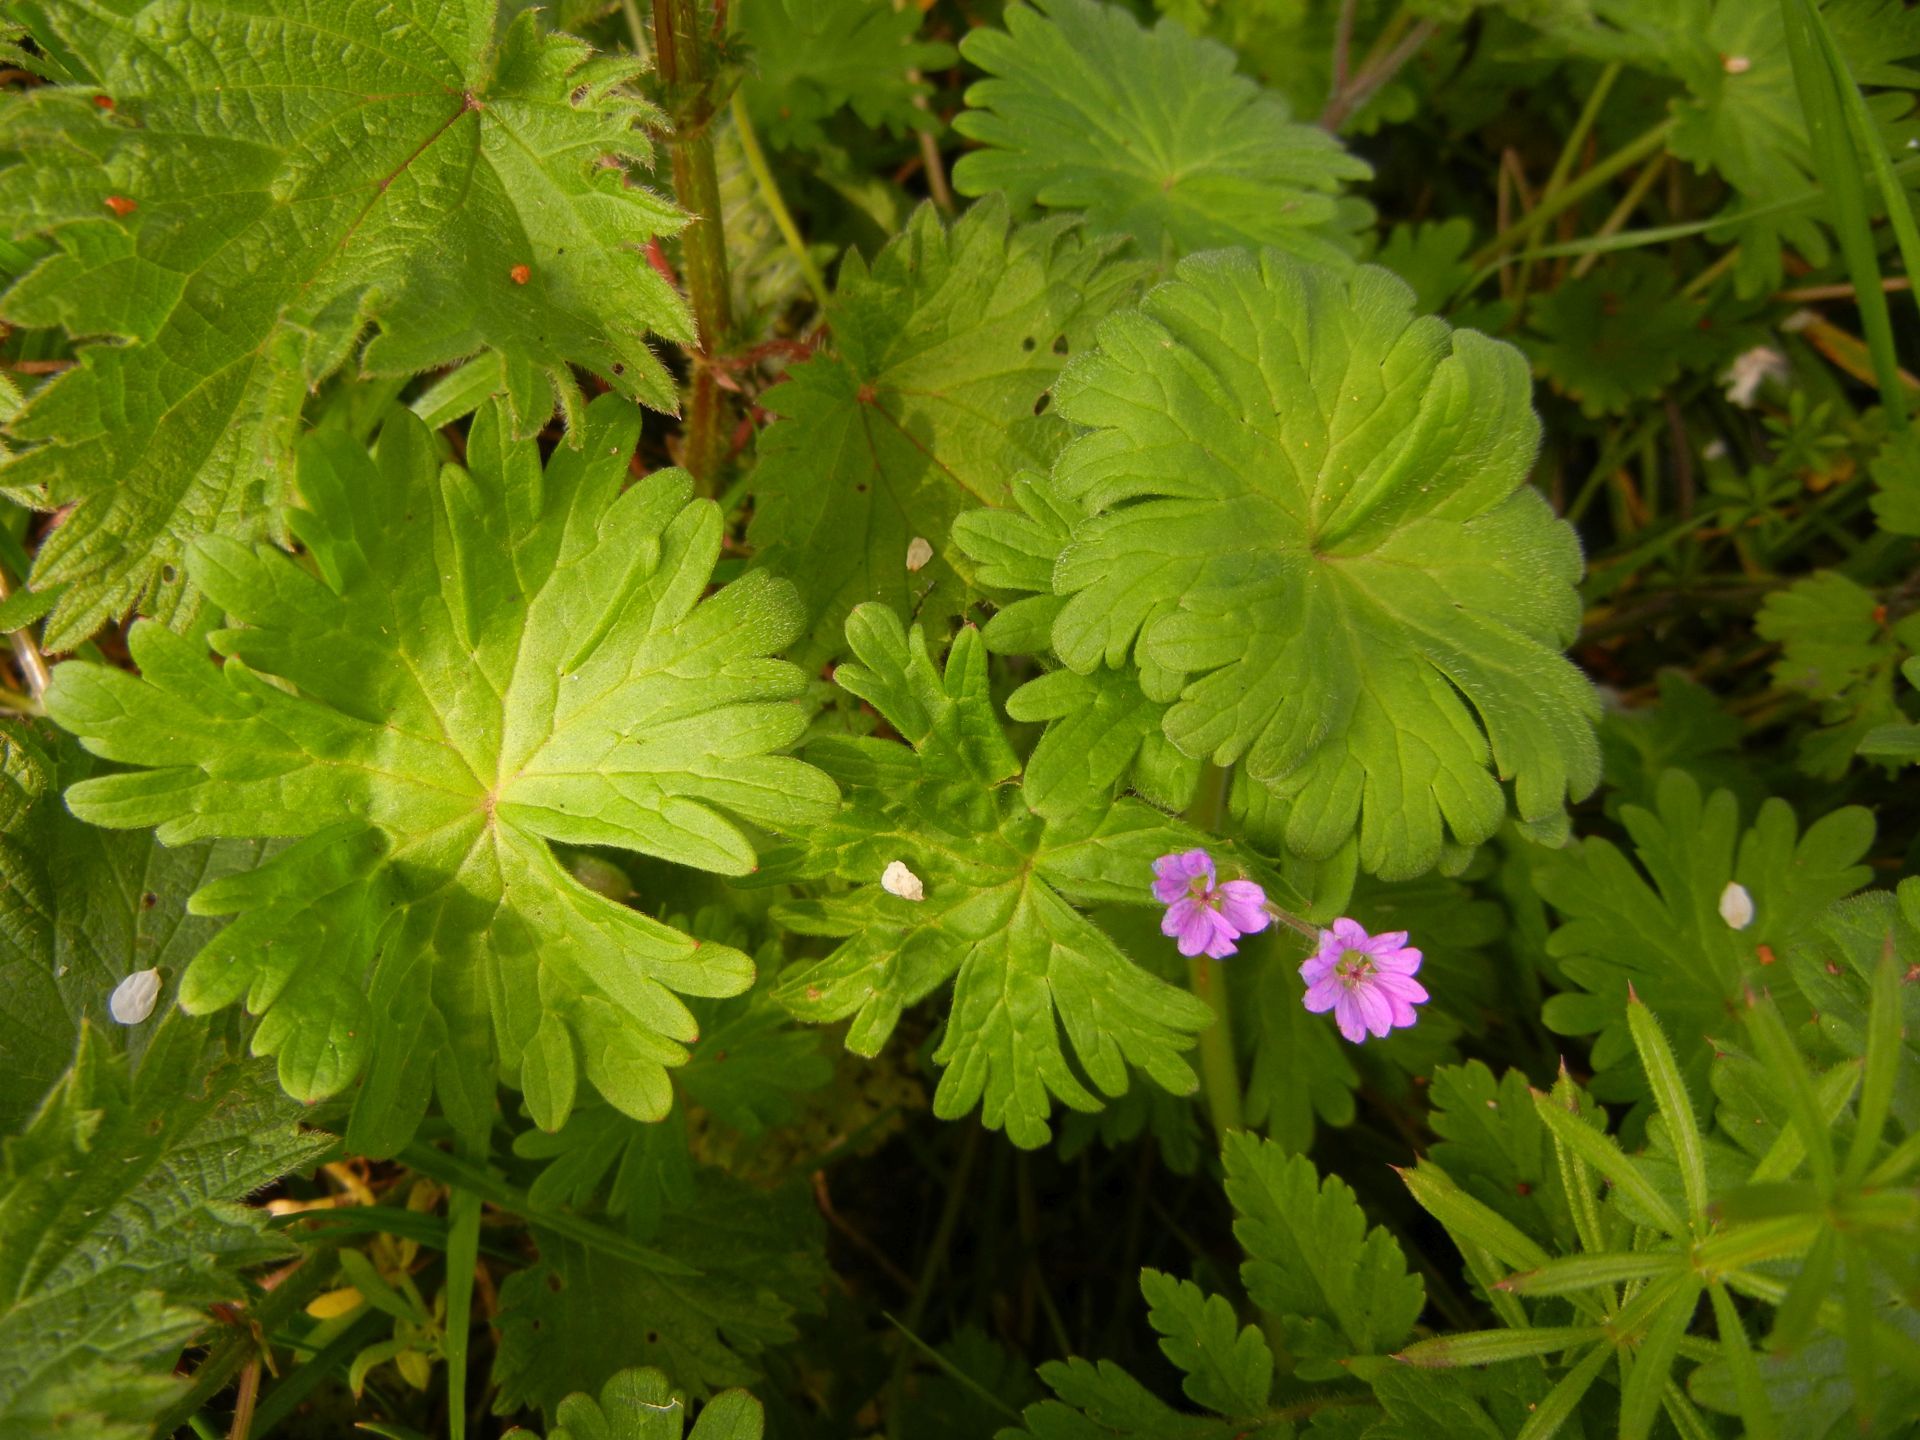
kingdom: Plantae
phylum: Tracheophyta
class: Magnoliopsida
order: Geraniales
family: Geraniaceae
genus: Geranium
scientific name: Geranium molle
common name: Dove's-foot crane's-bill
